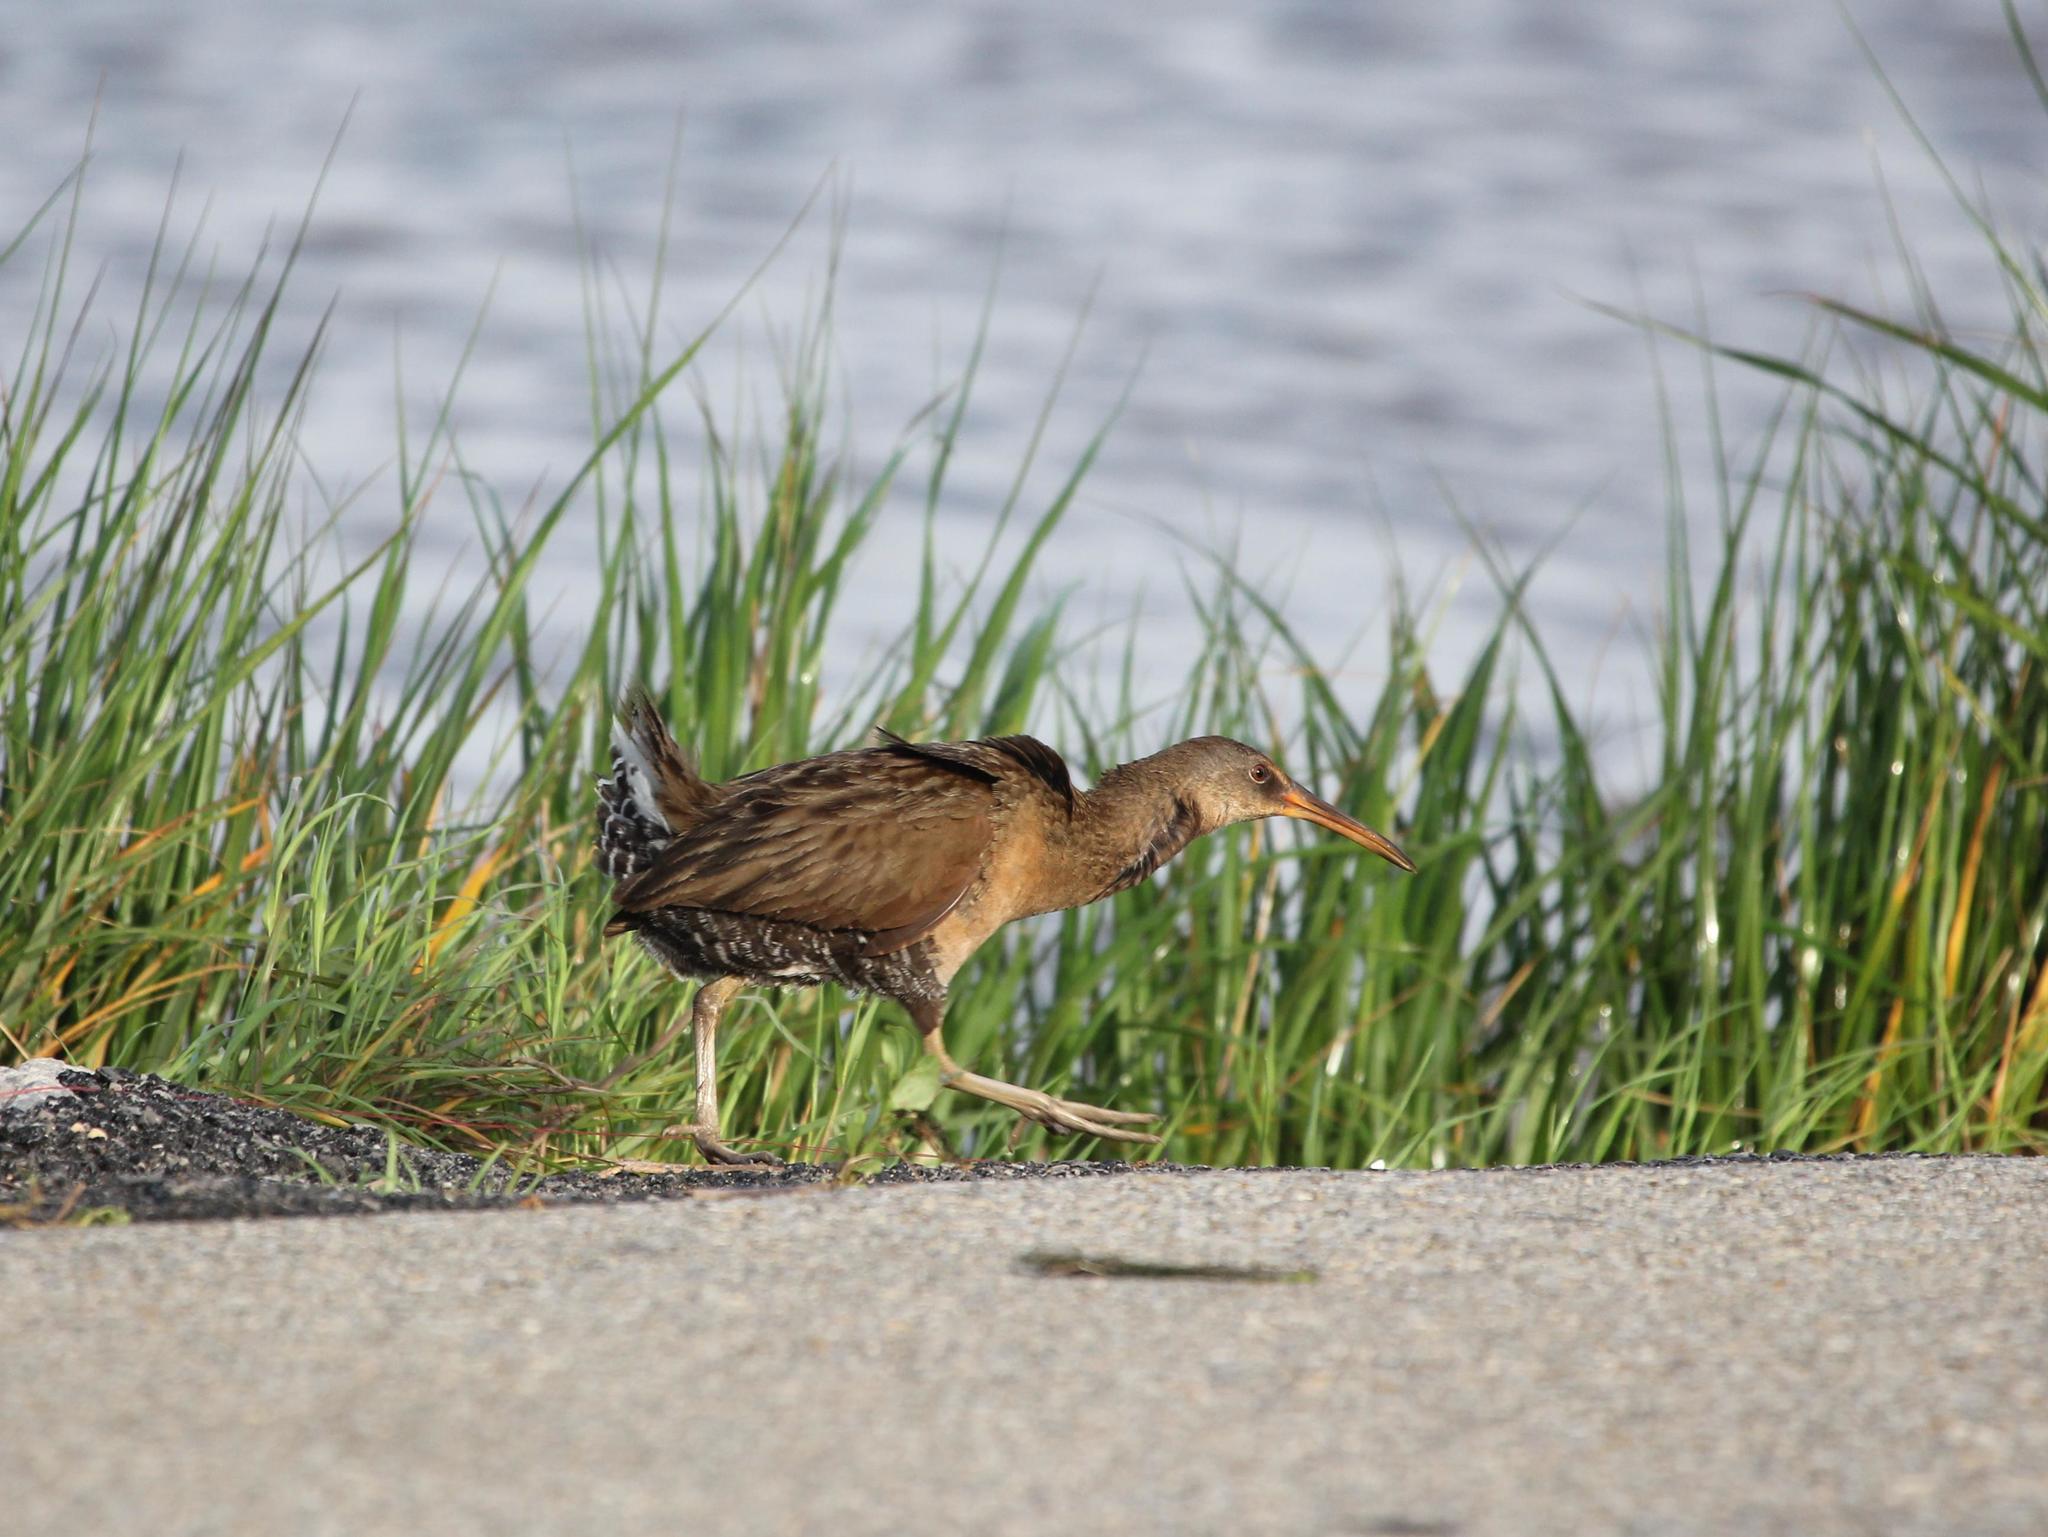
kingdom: Animalia
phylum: Chordata
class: Aves
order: Gruiformes
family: Rallidae
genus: Rallus
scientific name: Rallus crepitans
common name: Clapper rail
